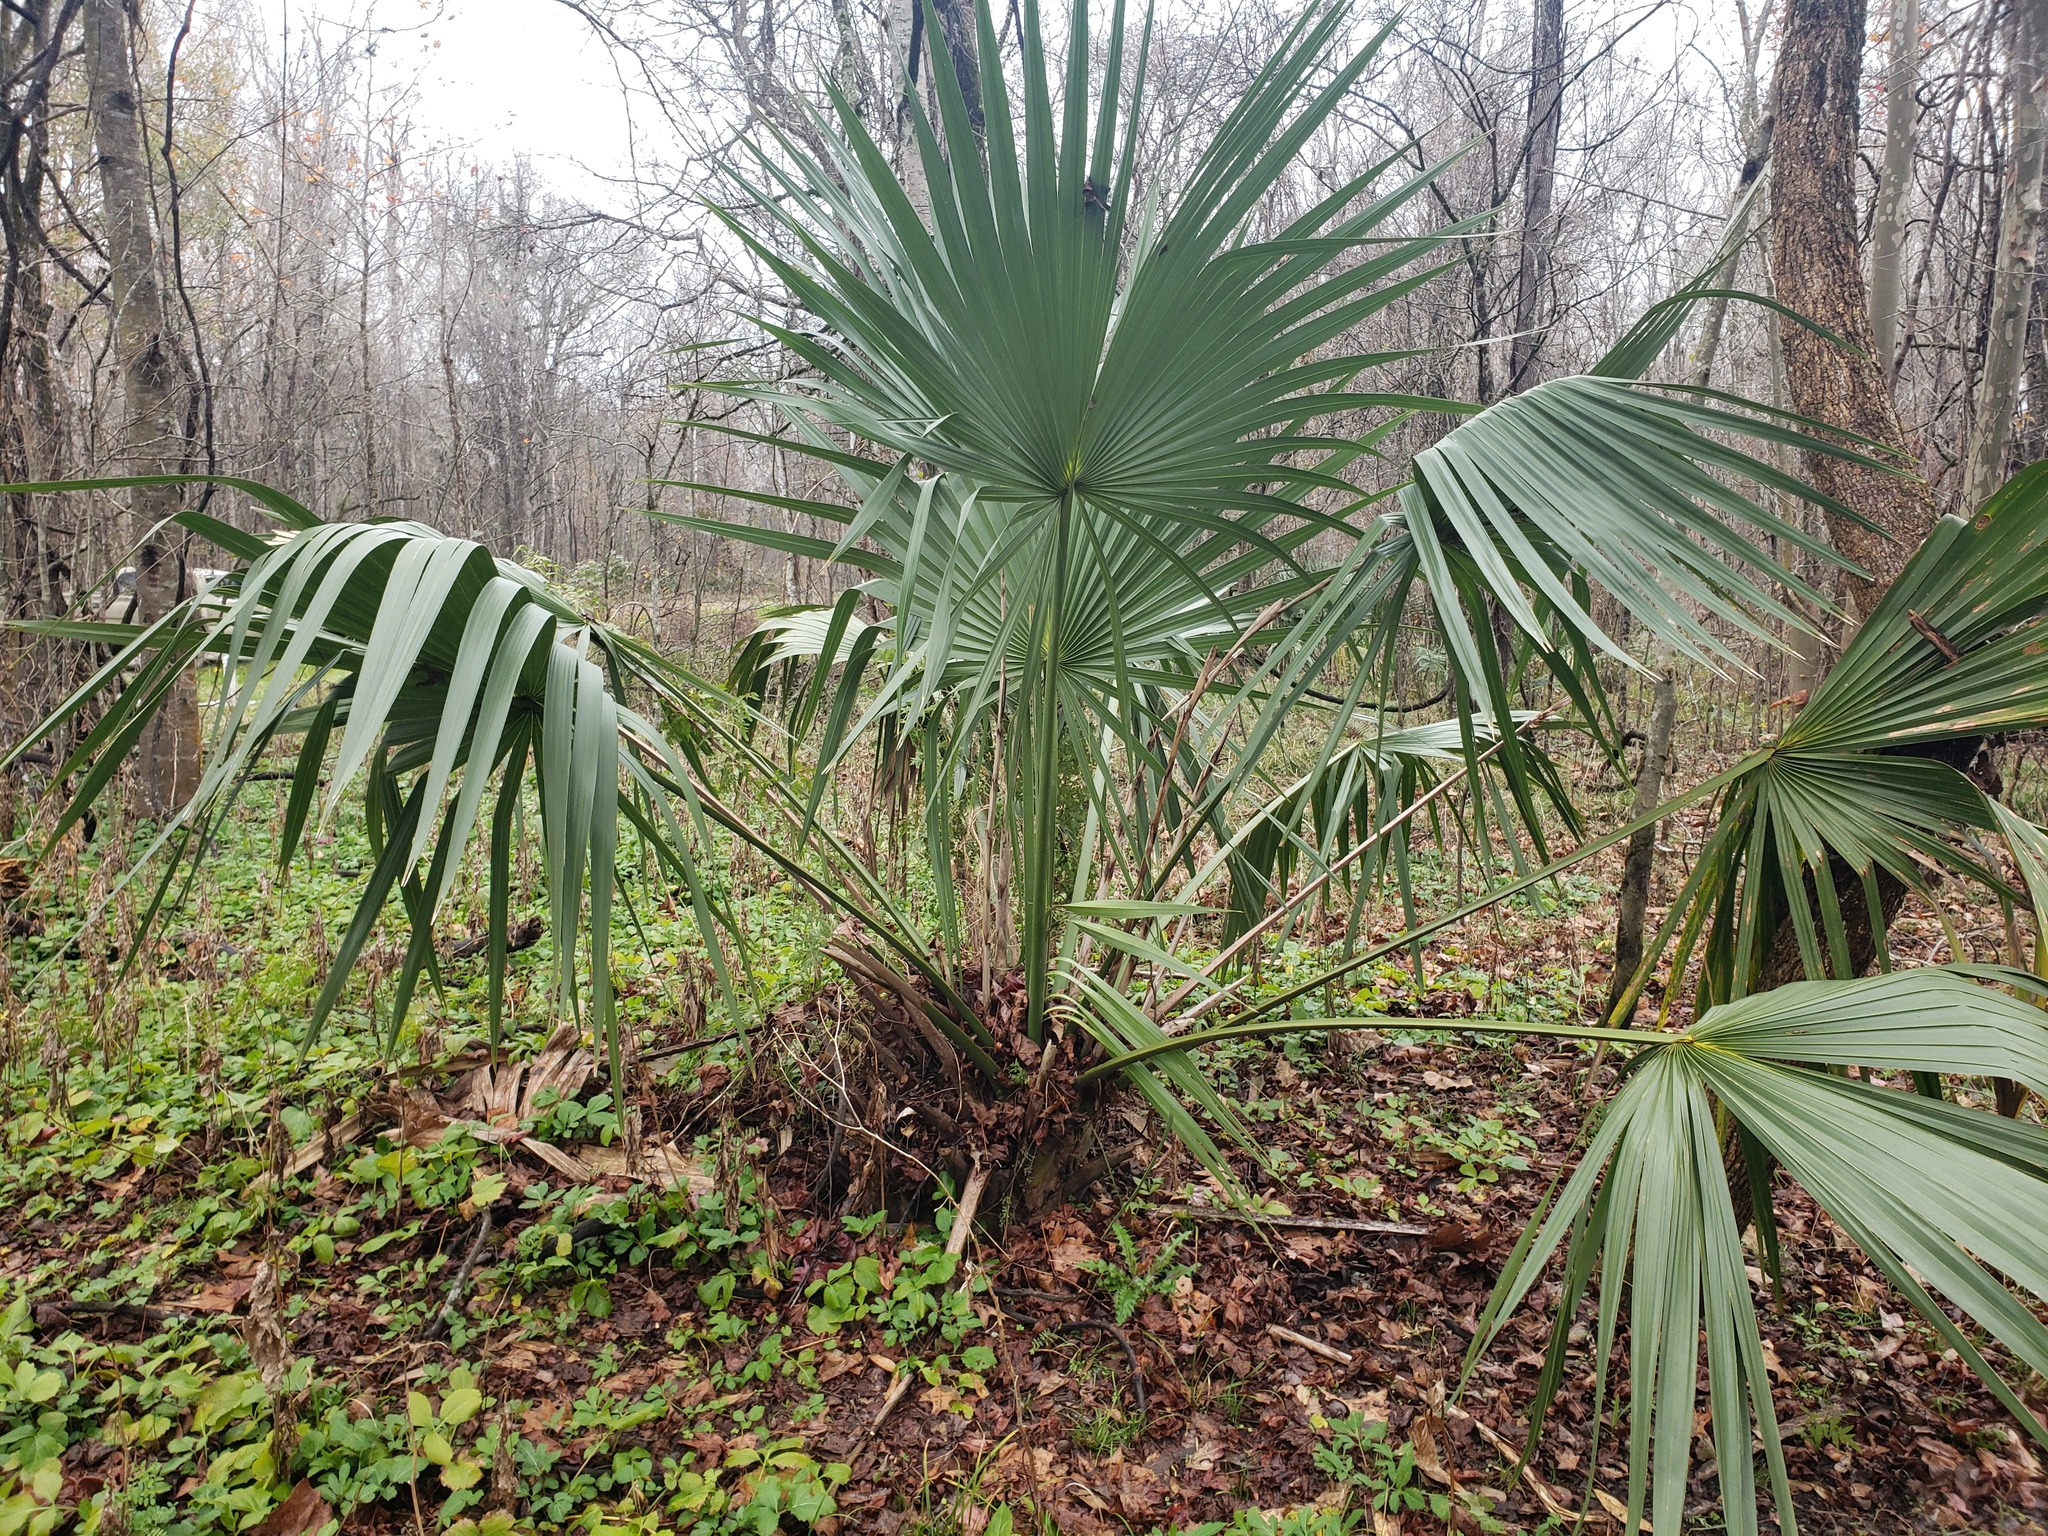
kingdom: Plantae
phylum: Tracheophyta
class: Liliopsida
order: Arecales
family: Arecaceae
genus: Sabal
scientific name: Sabal minor
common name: Dwarf palmetto
